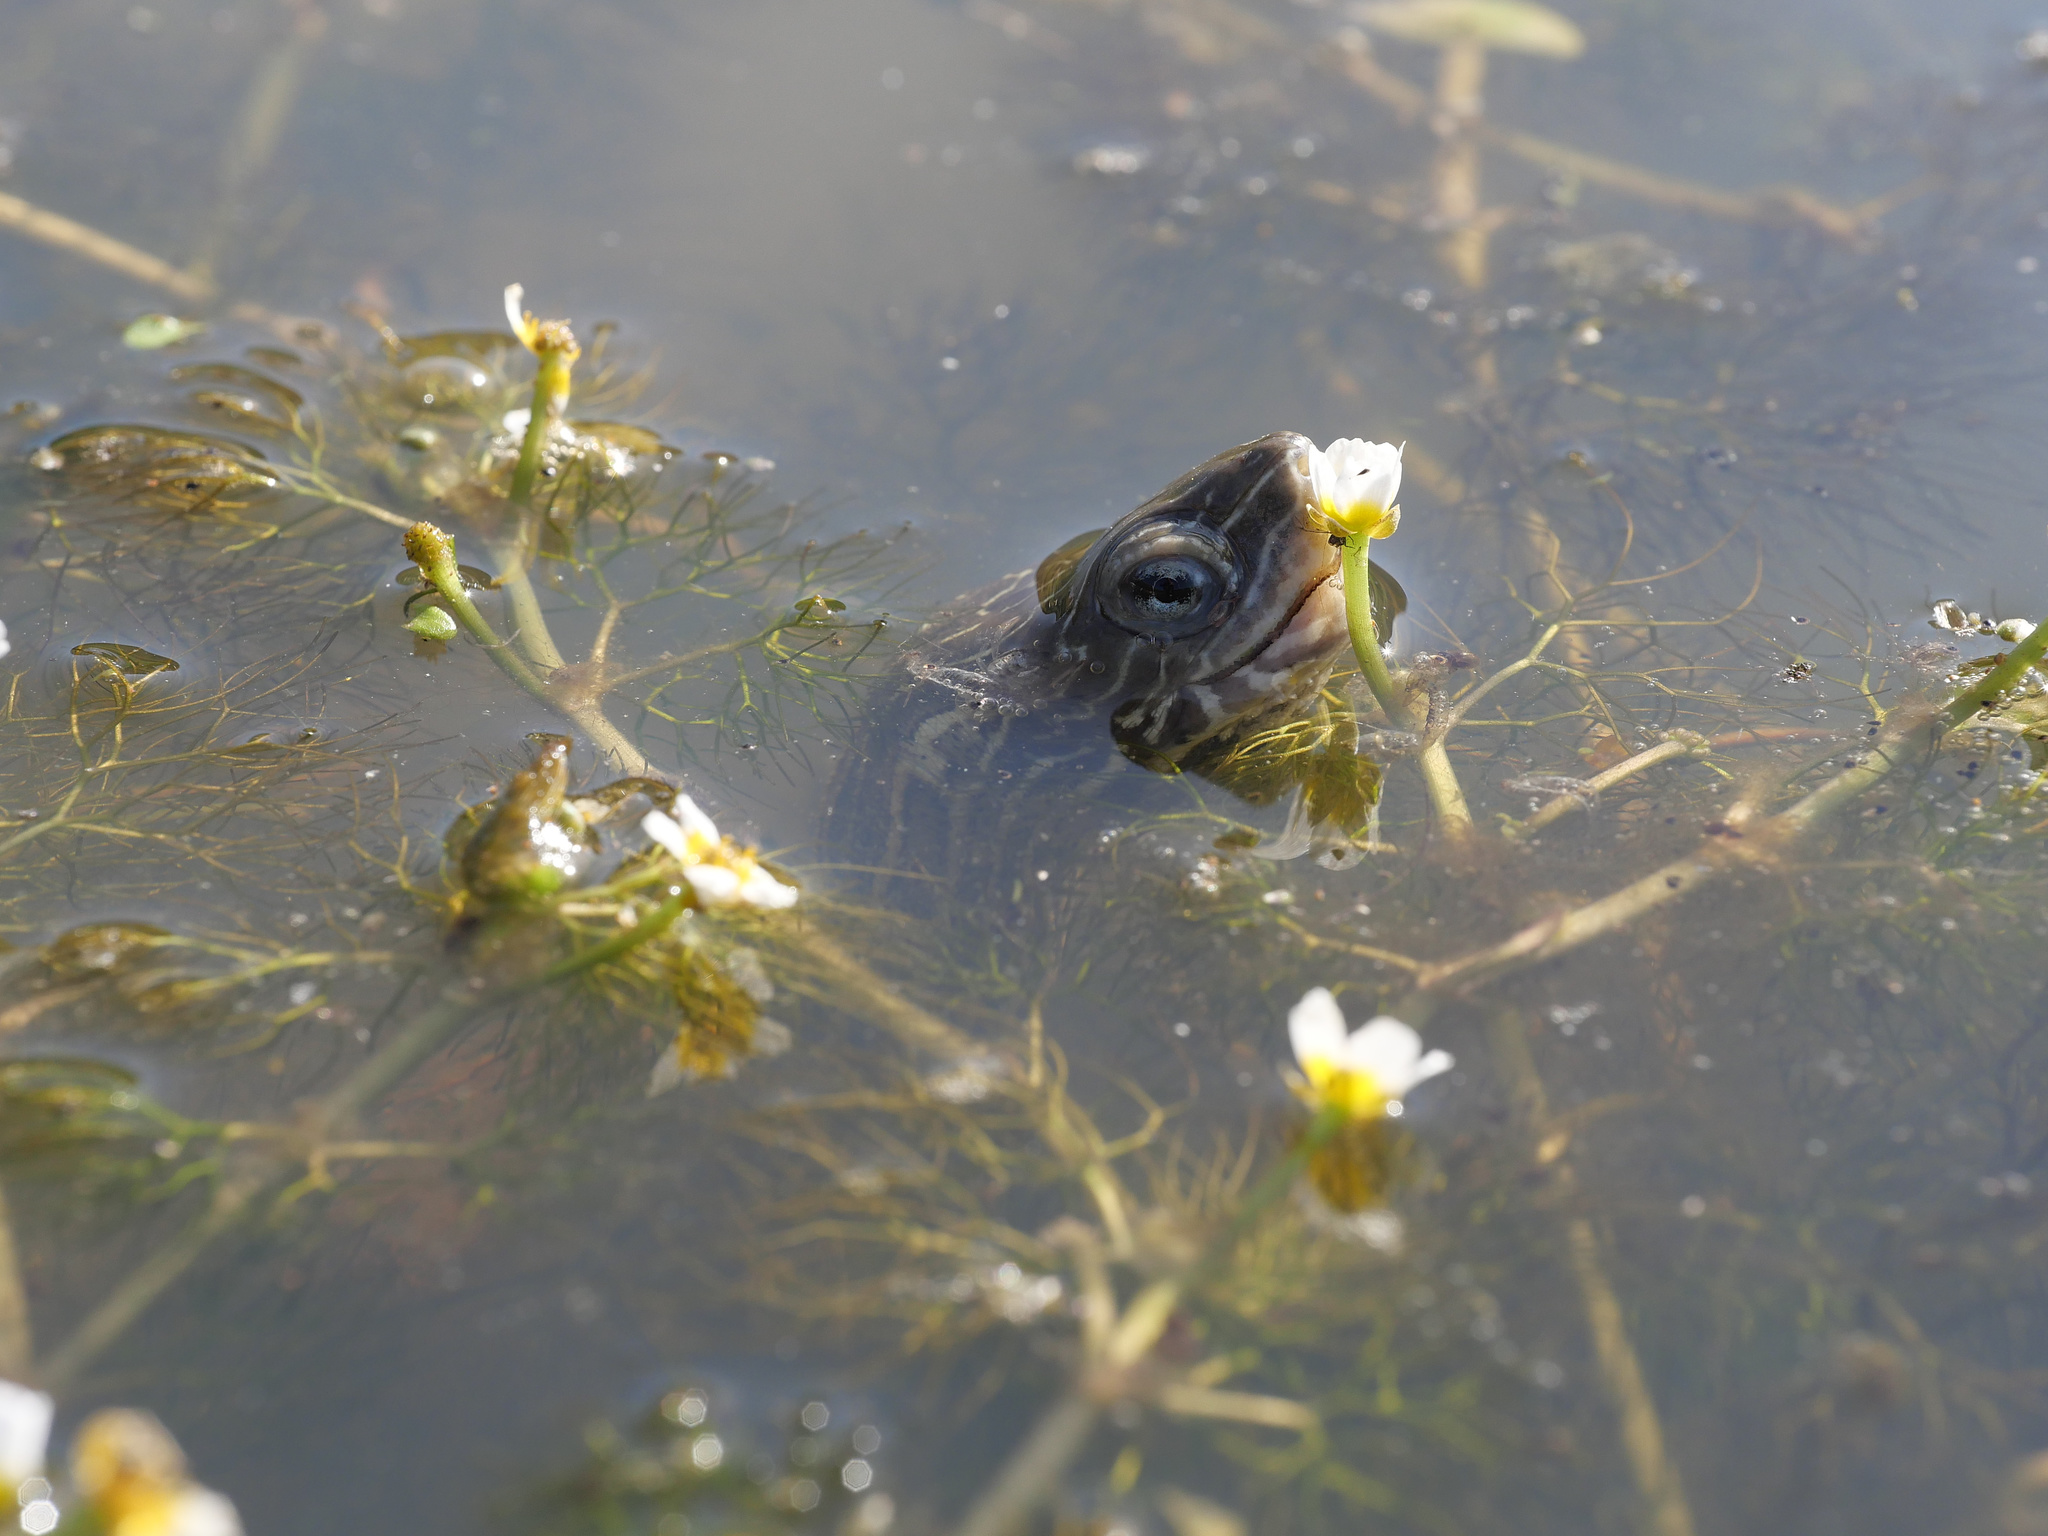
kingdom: Animalia
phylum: Chordata
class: Testudines
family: Geoemydidae
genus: Mauremys
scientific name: Mauremys rivulata
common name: Western caspian turtle
